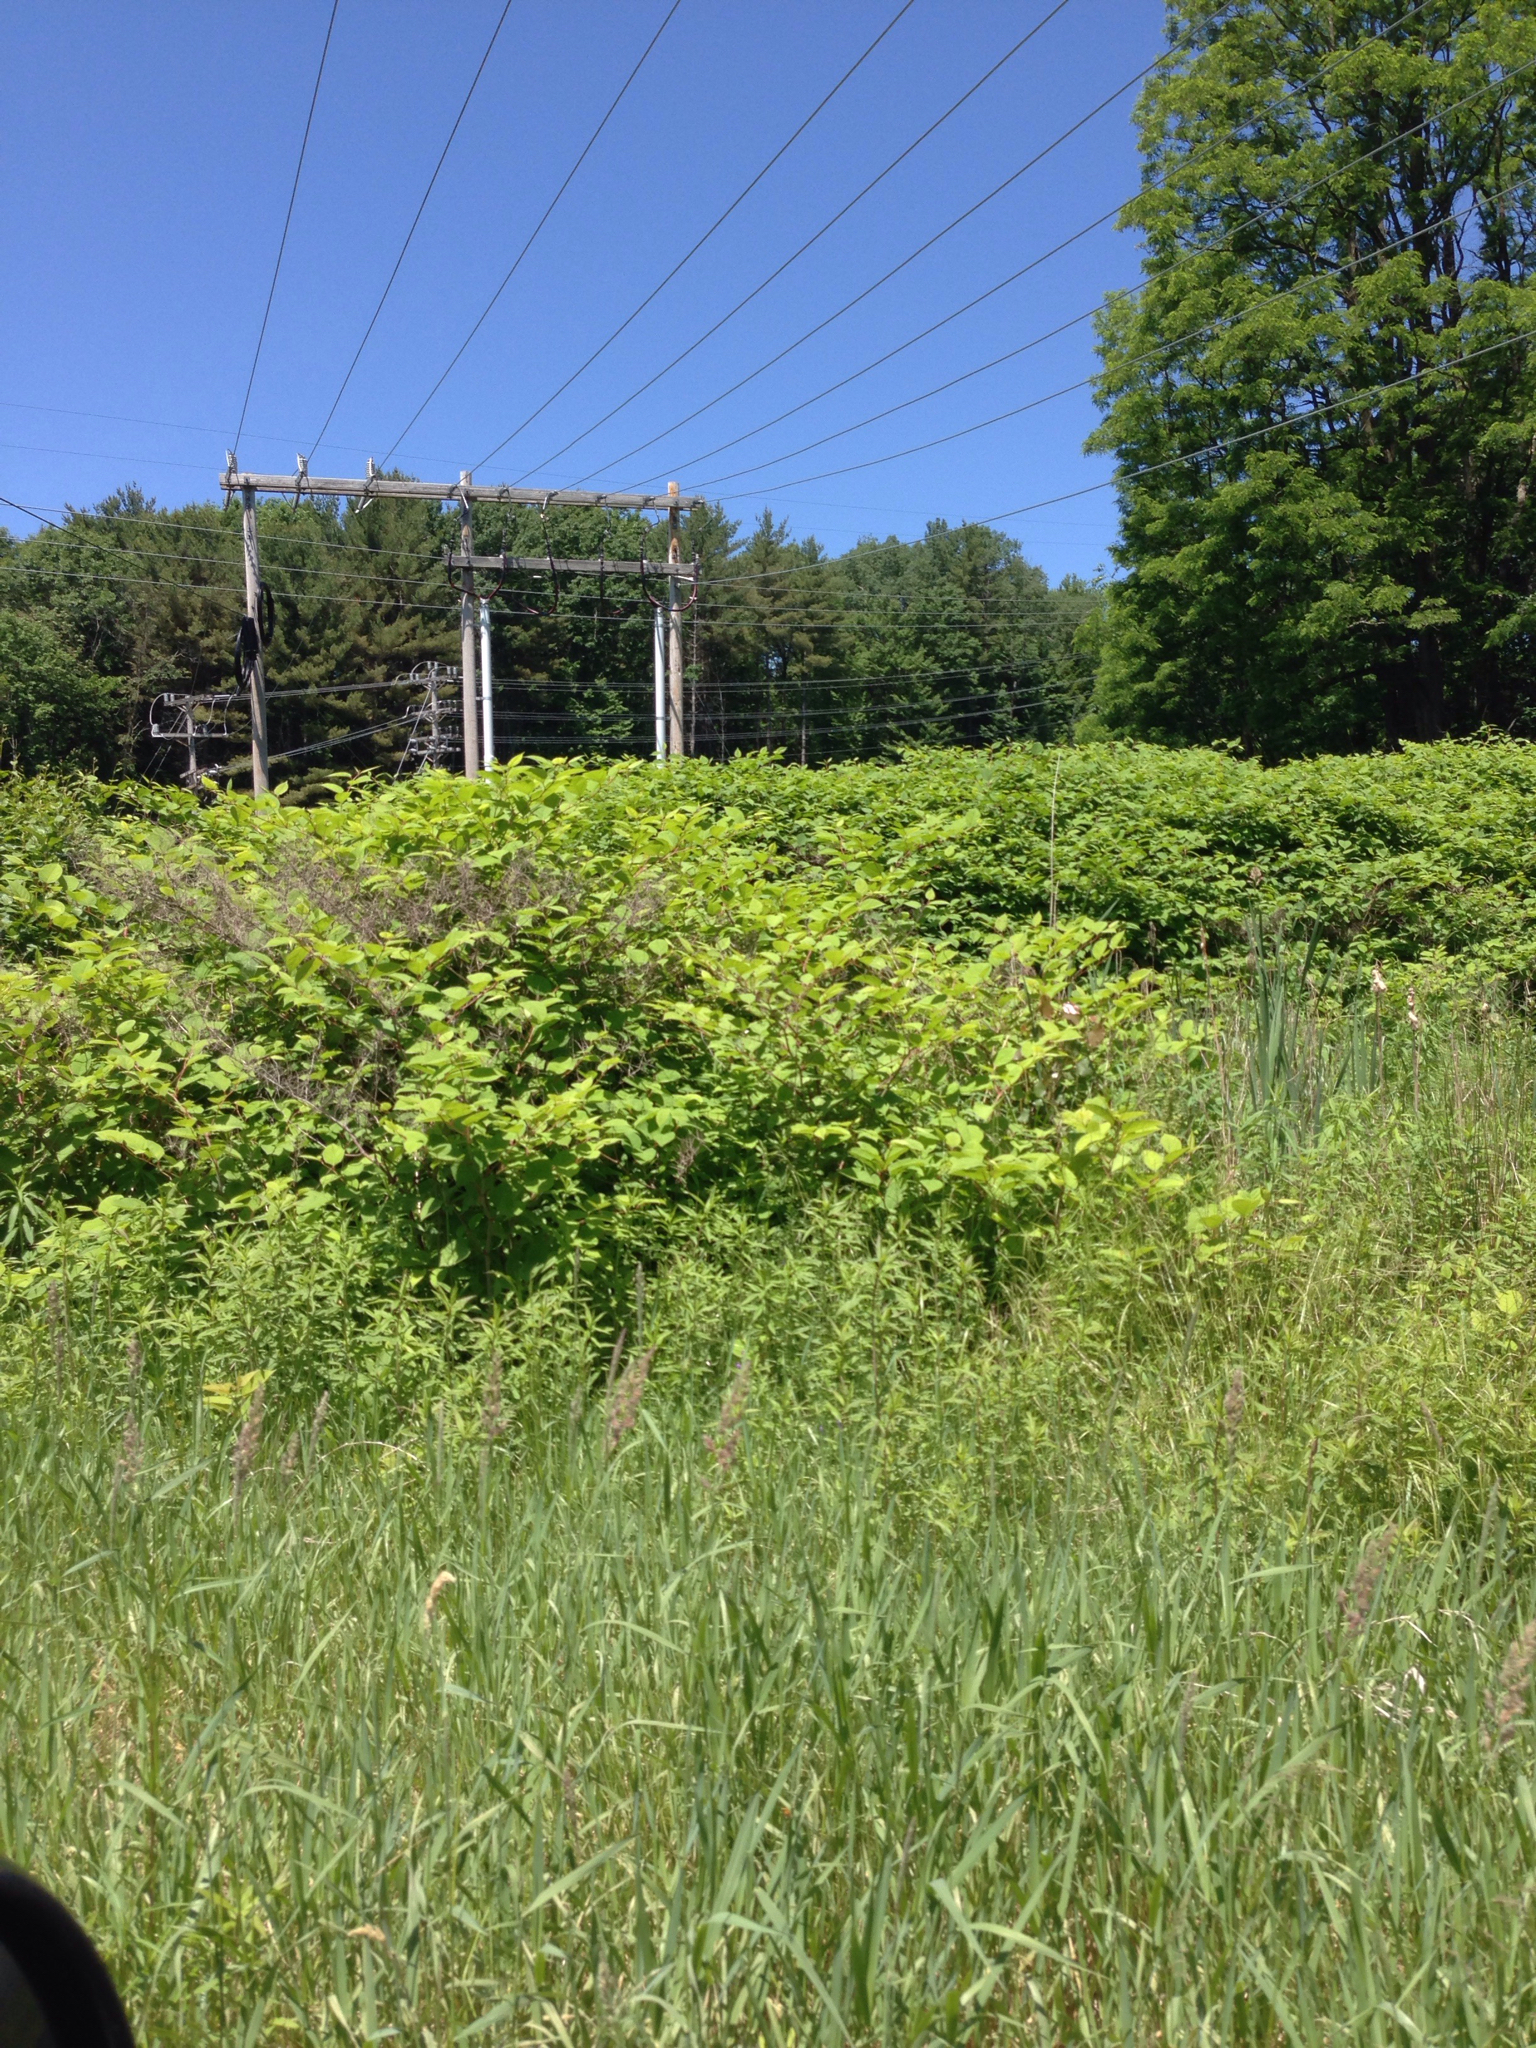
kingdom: Plantae
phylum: Tracheophyta
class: Magnoliopsida
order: Caryophyllales
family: Polygonaceae
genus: Reynoutria
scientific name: Reynoutria japonica
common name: Japanese knotweed
